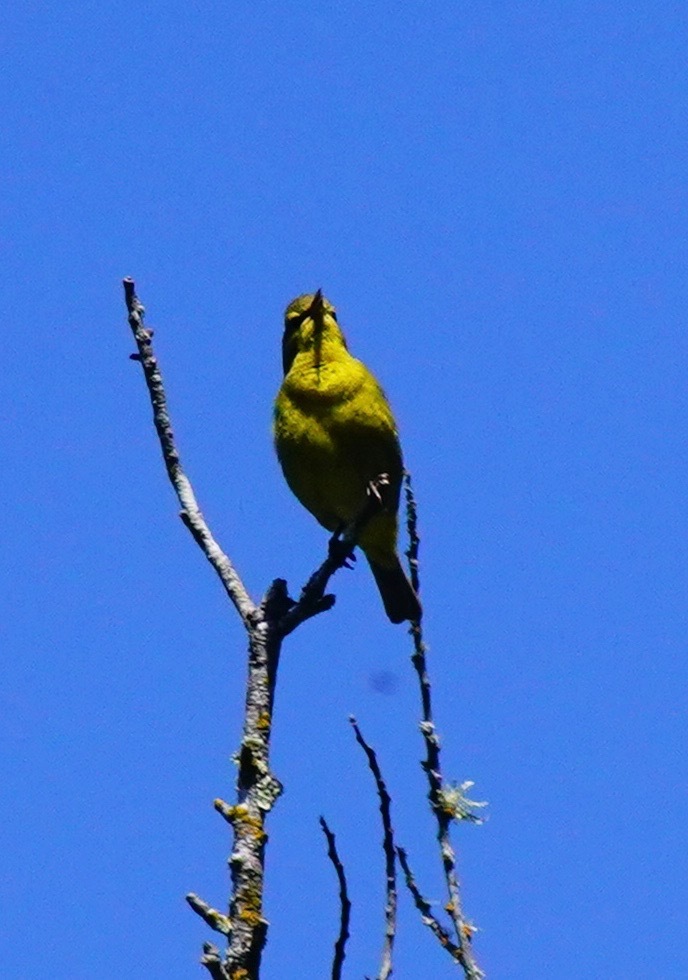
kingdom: Animalia
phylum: Chordata
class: Aves
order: Passeriformes
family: Parulidae
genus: Leiothlypis
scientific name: Leiothlypis celata
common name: Orange-crowned warbler
